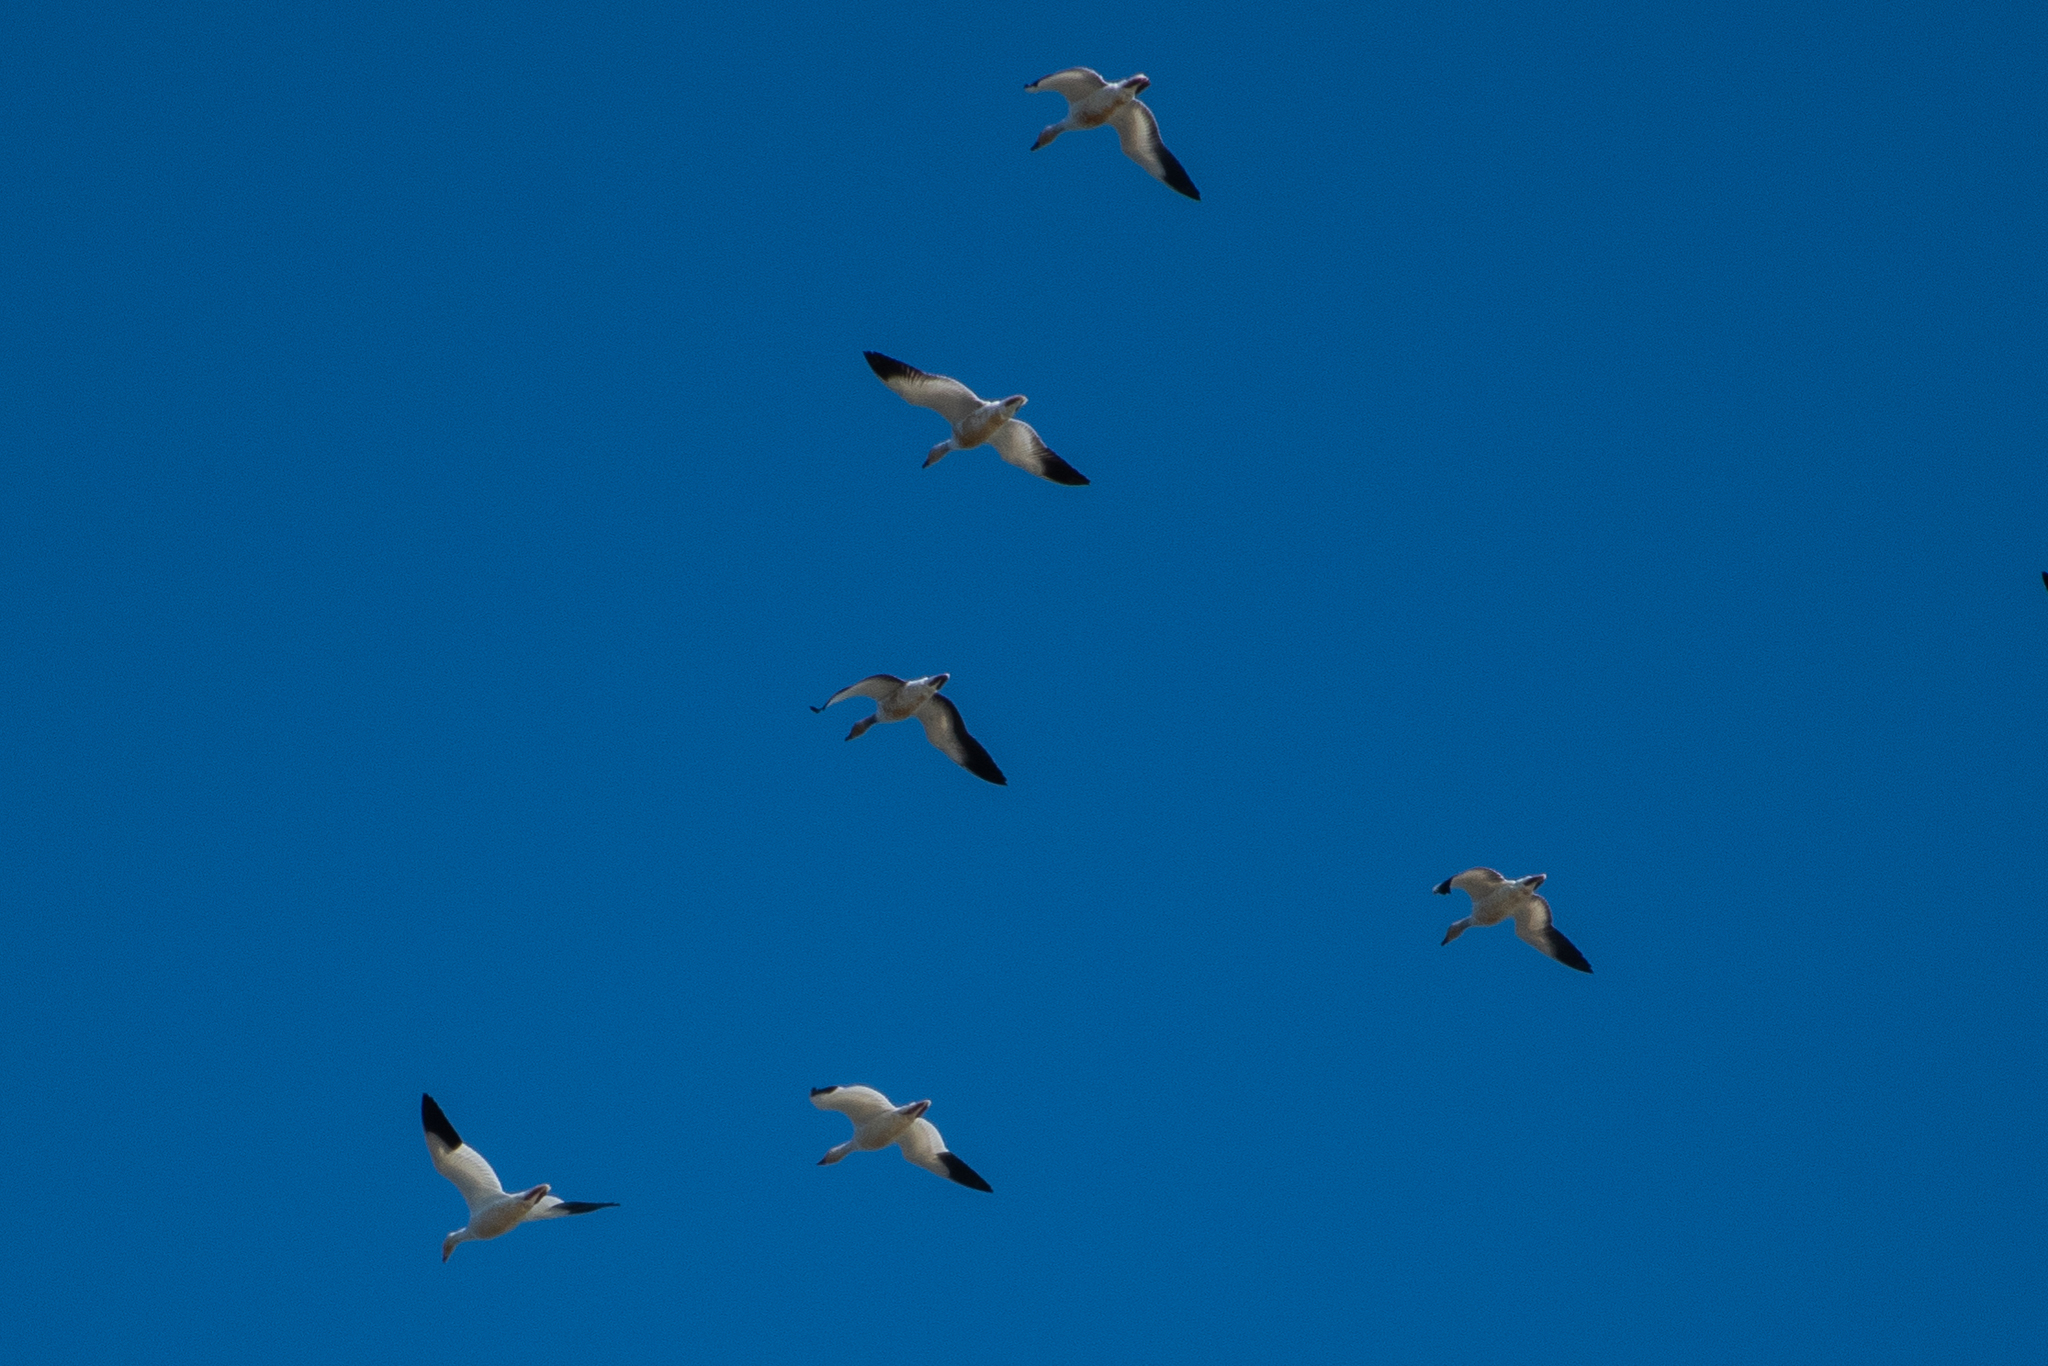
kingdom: Animalia
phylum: Chordata
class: Aves
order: Anseriformes
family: Anatidae
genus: Anser
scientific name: Anser caerulescens
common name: Snow goose
